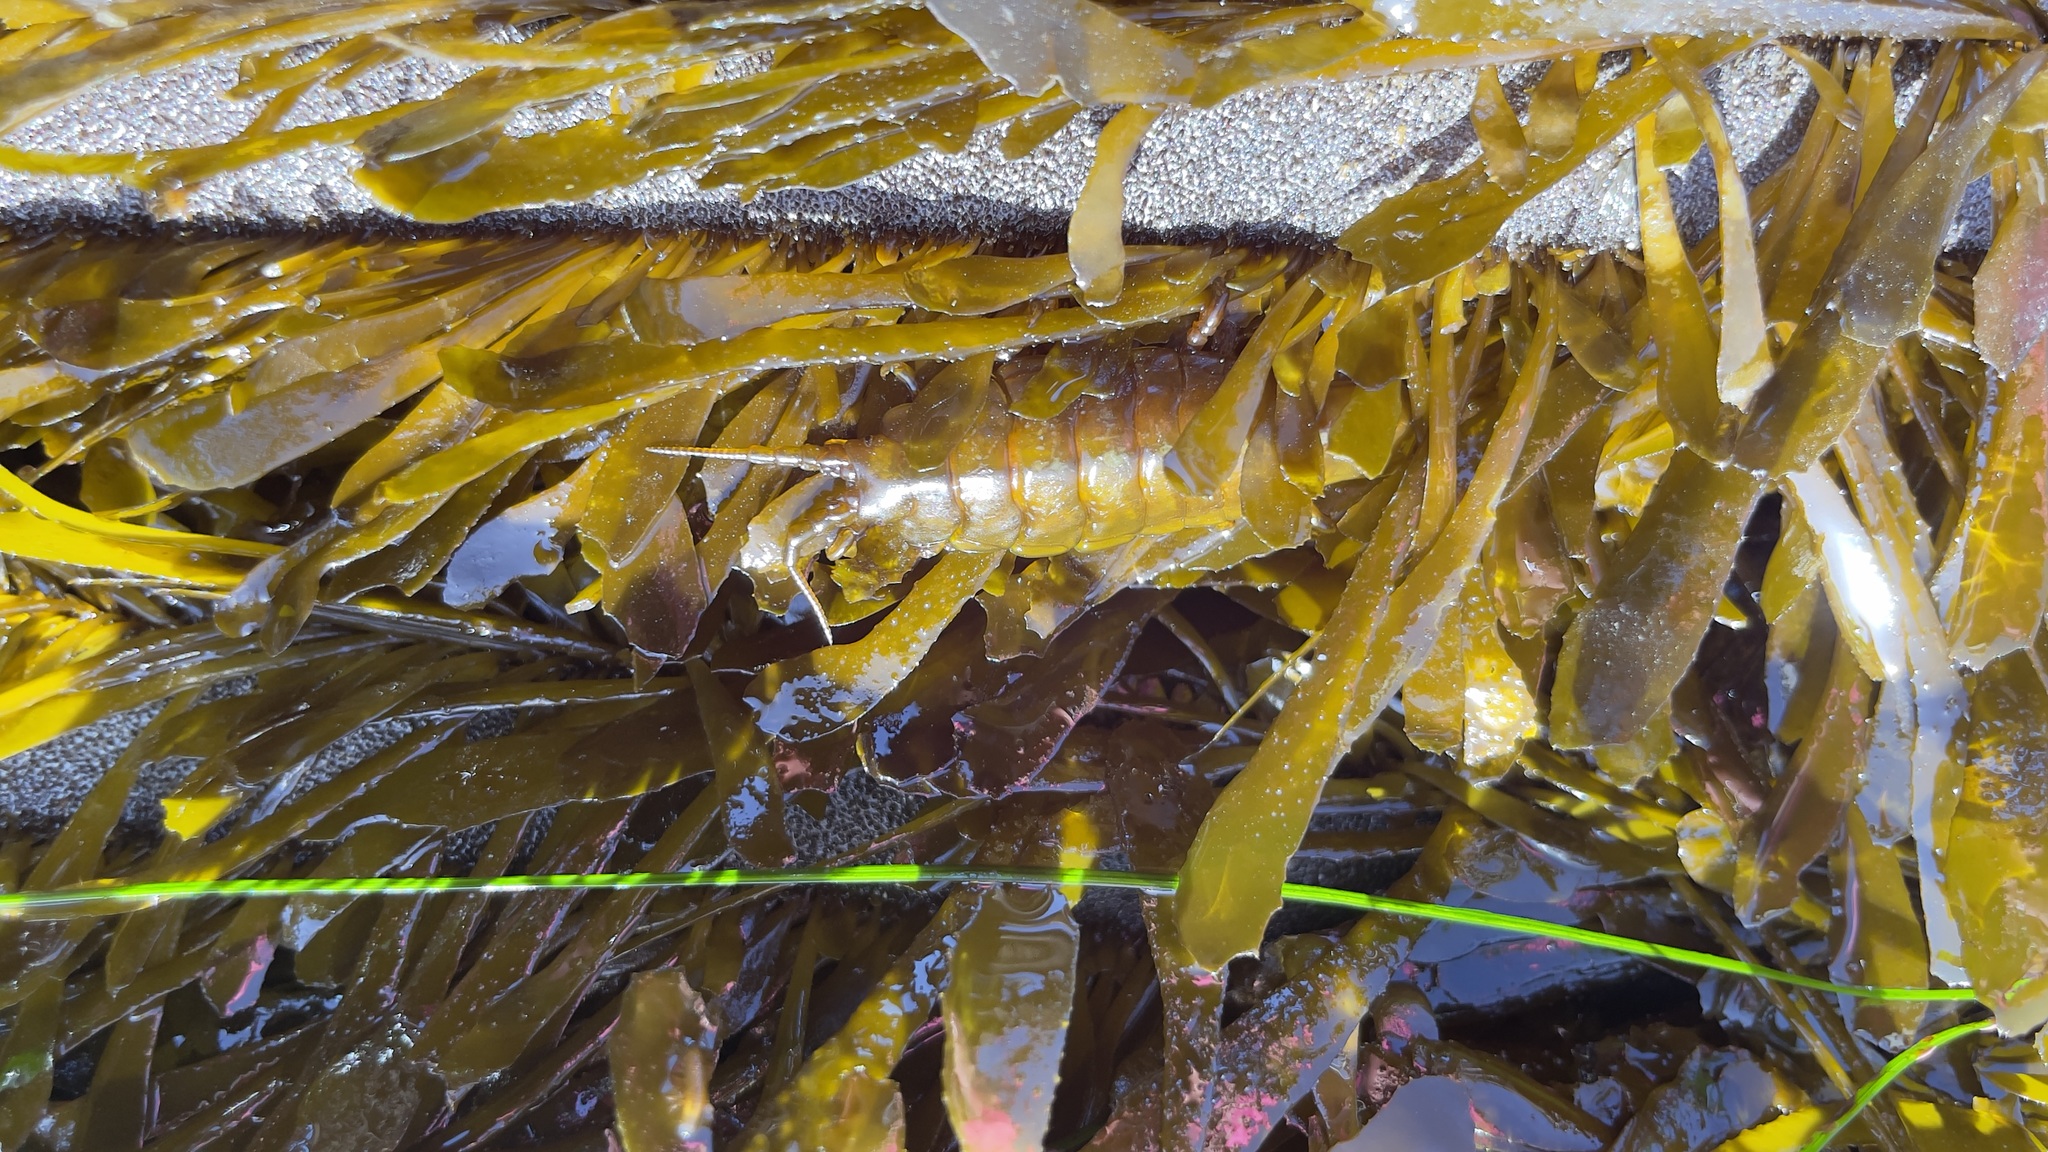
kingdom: Animalia
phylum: Arthropoda
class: Malacostraca
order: Isopoda
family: Idoteidae
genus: Pentidotea
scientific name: Pentidotea stenops
